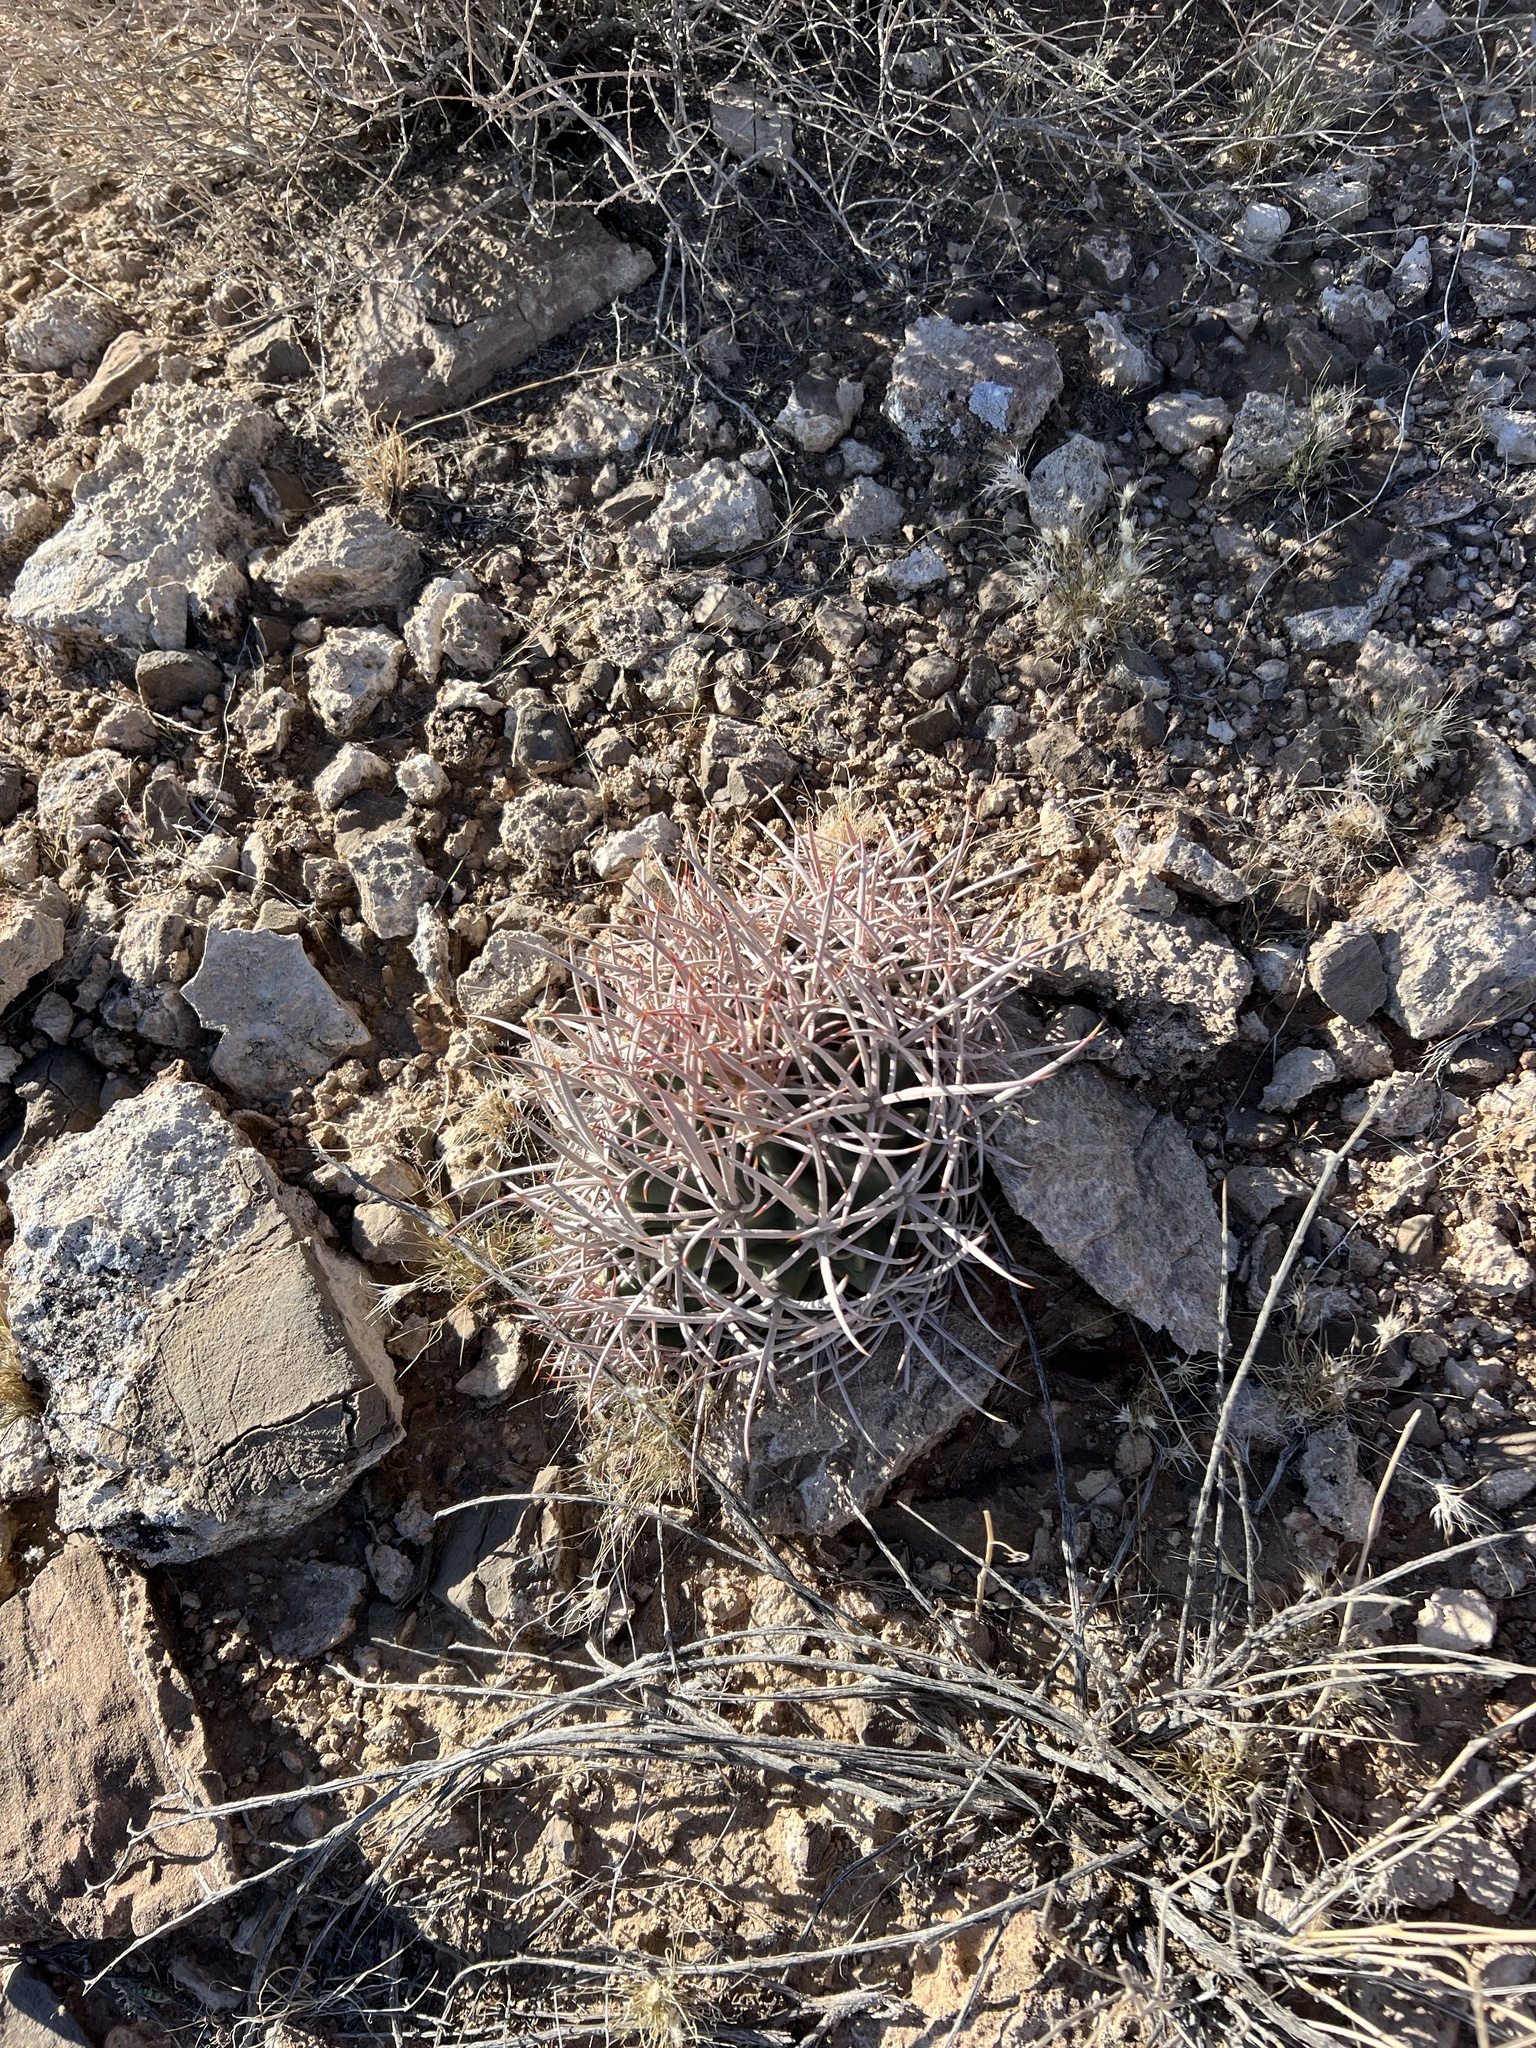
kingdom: Plantae
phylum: Tracheophyta
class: Magnoliopsida
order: Caryophyllales
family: Cactaceae
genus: Echinocactus
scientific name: Echinocactus polycephalus
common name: Cottontop cactus
